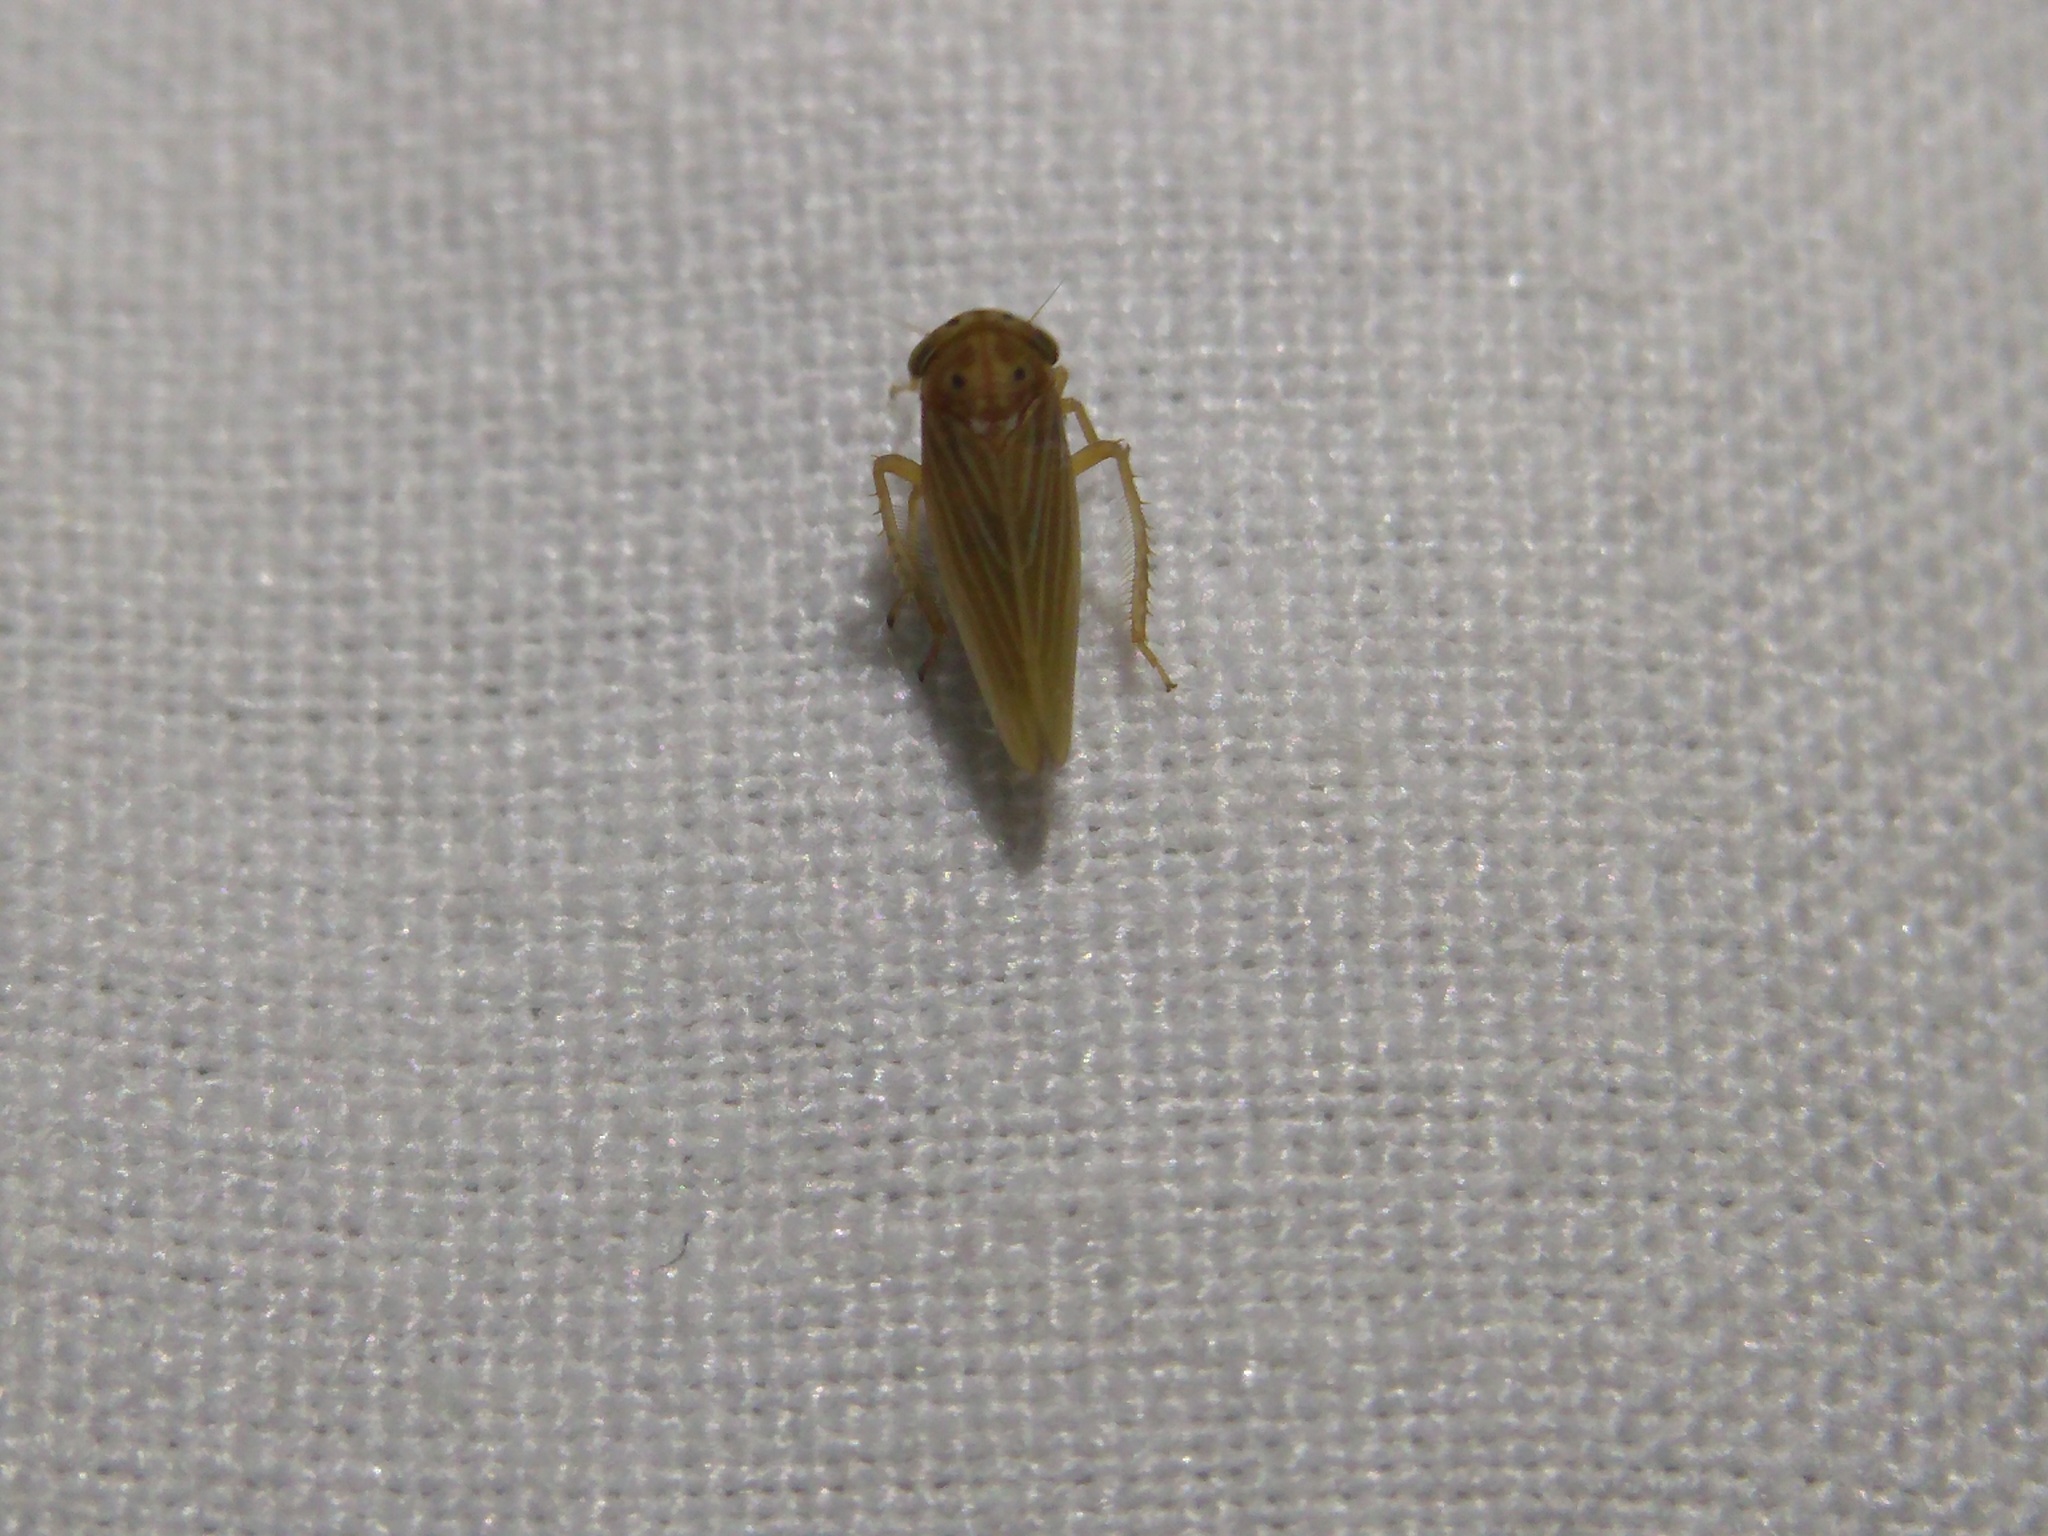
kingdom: Animalia
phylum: Arthropoda
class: Insecta
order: Hemiptera
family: Cicadellidae
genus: Agallia
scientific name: Agallia constricta
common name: The constricted leafhopper
